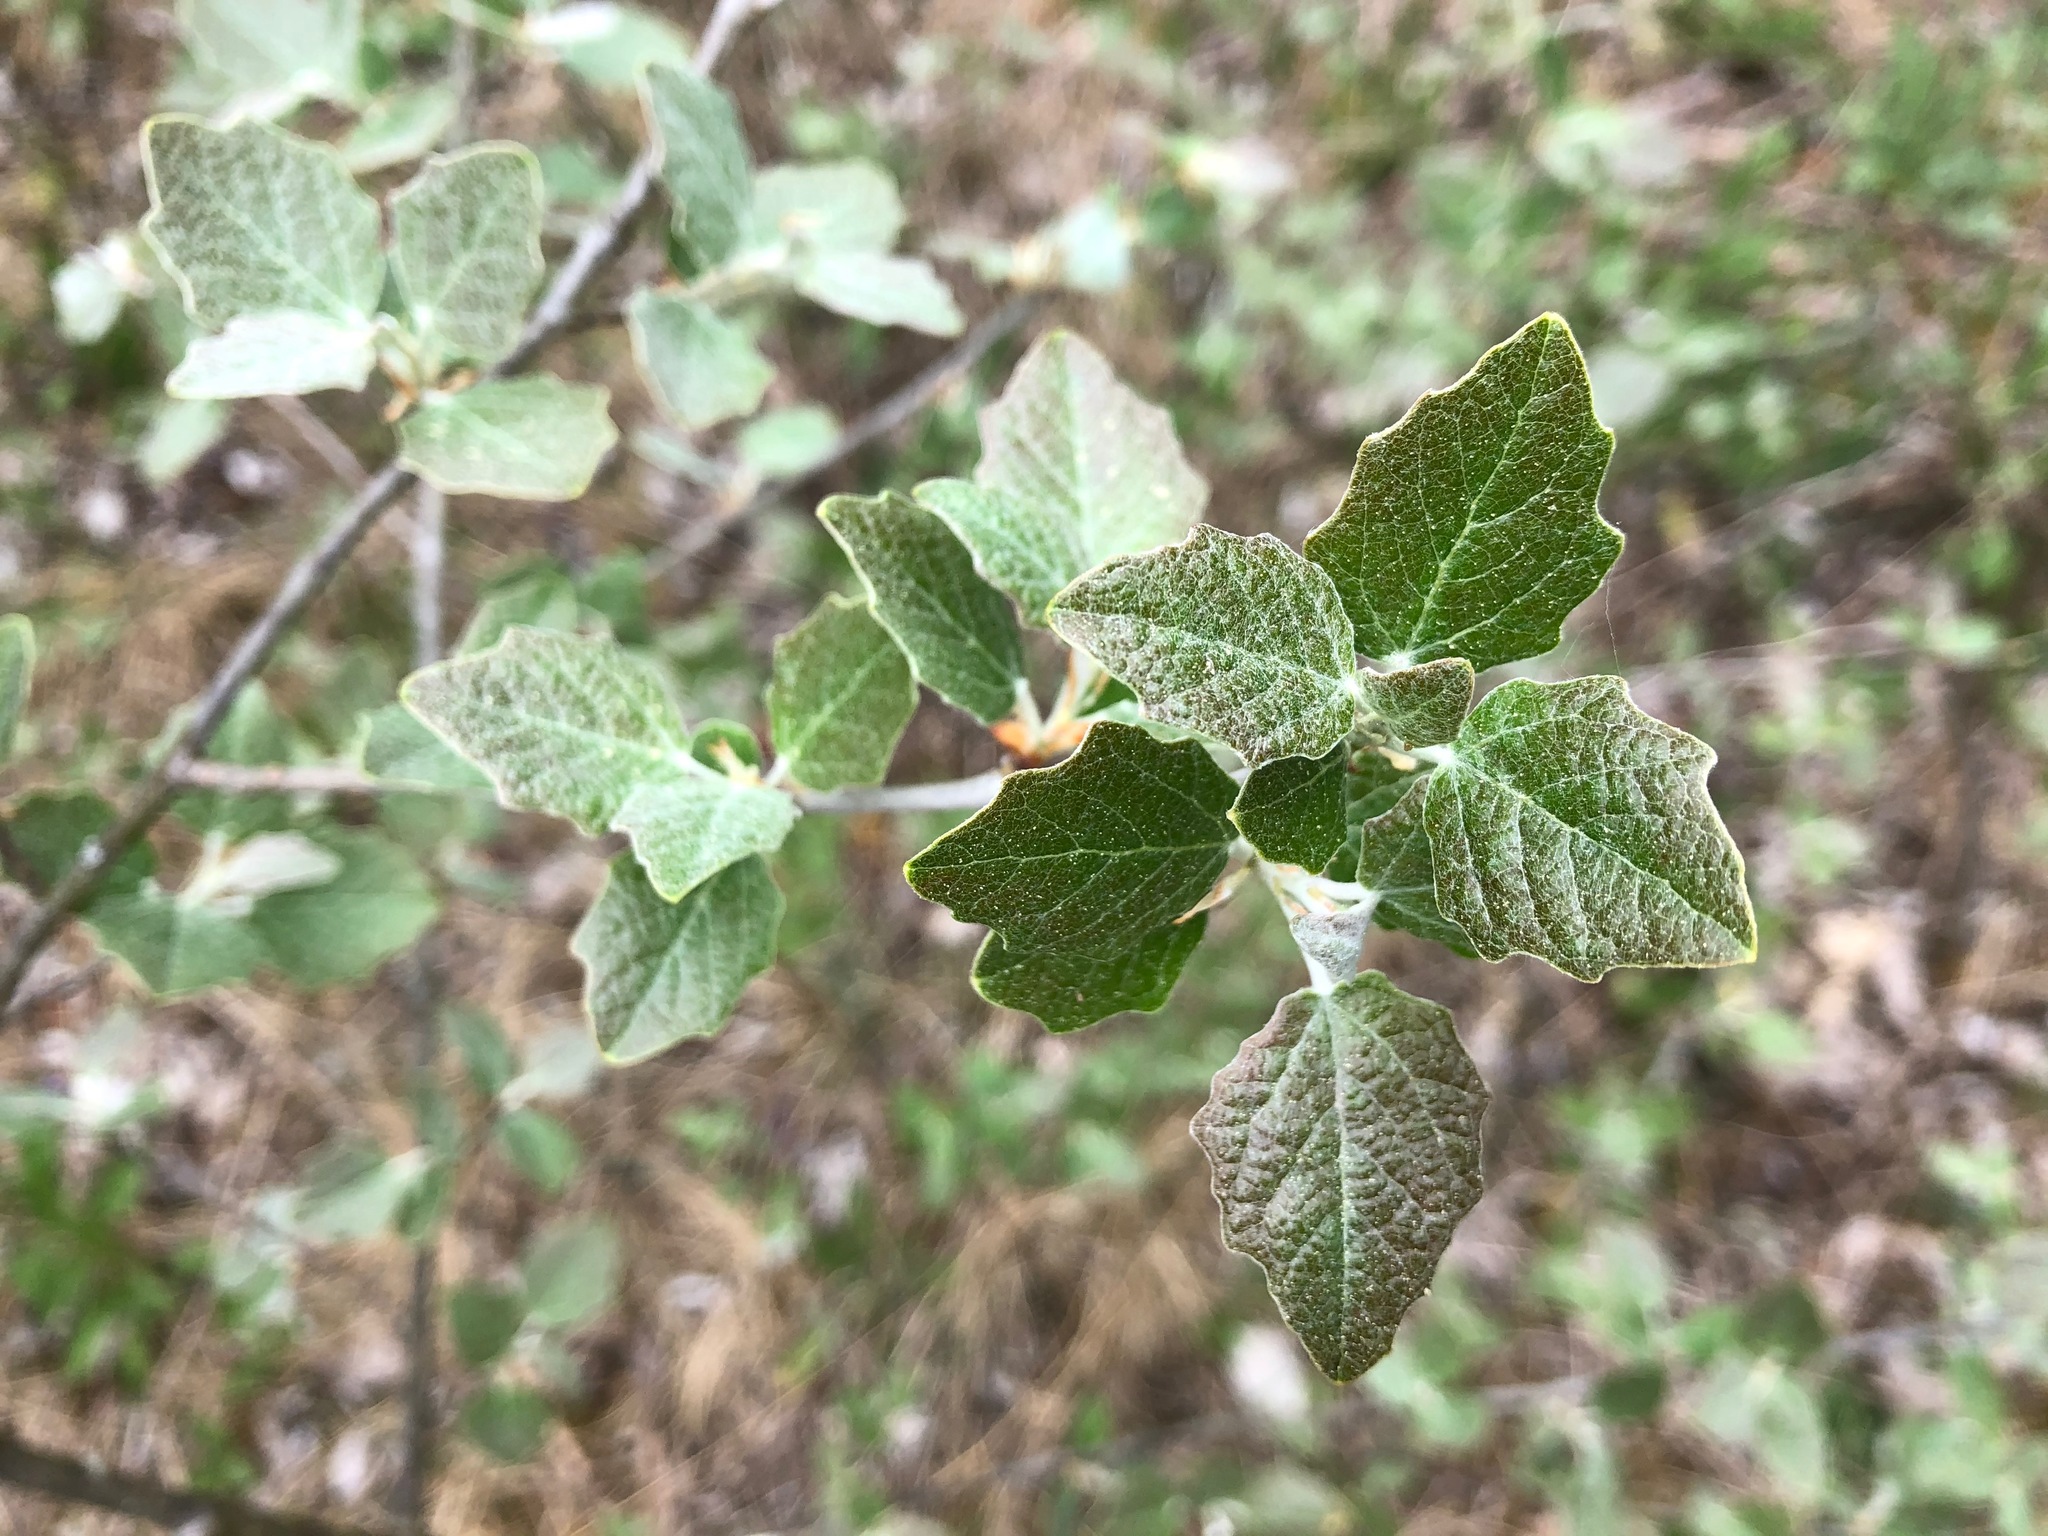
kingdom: Plantae
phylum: Tracheophyta
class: Magnoliopsida
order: Malpighiales
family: Salicaceae
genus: Populus
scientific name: Populus alba
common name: White poplar
